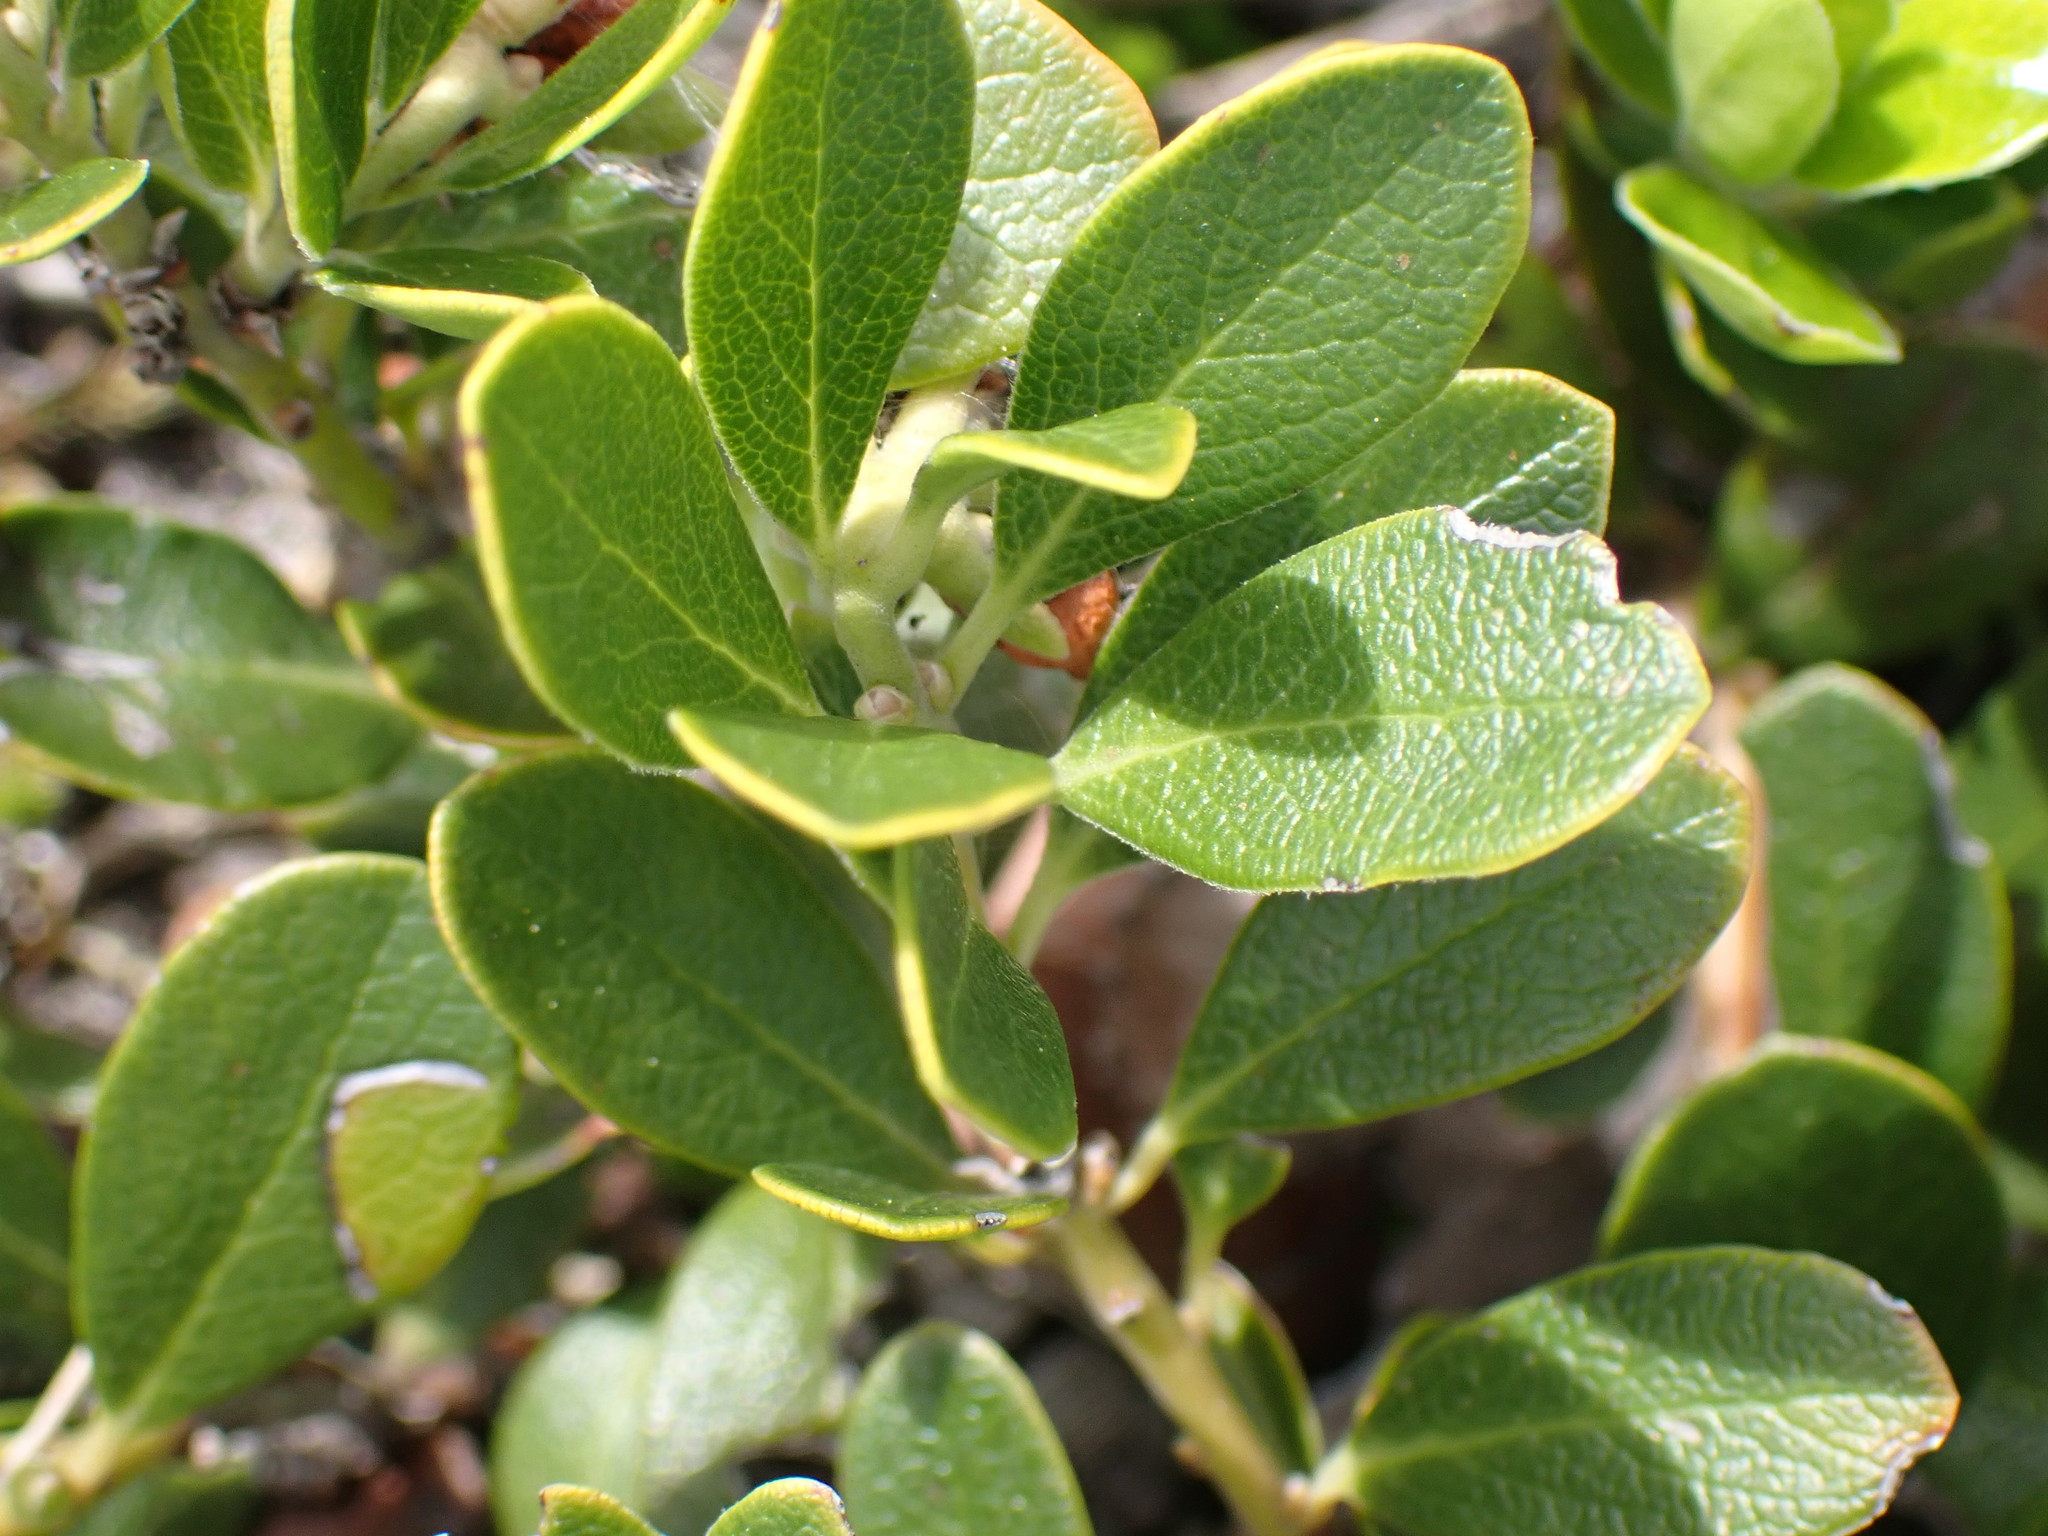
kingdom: Plantae
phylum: Tracheophyta
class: Magnoliopsida
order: Ericales
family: Ericaceae
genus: Arctostaphylos
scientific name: Arctostaphylos uva-ursi
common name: Bearberry
